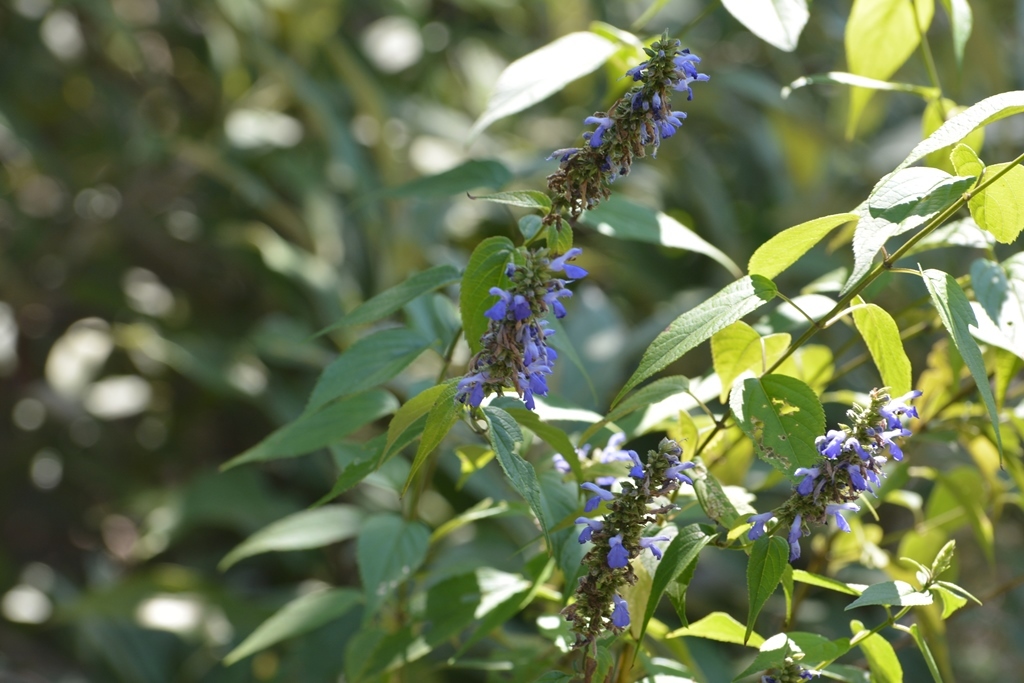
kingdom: Plantae
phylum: Tracheophyta
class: Magnoliopsida
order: Lamiales
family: Lamiaceae
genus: Salvia
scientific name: Salvia connivens
